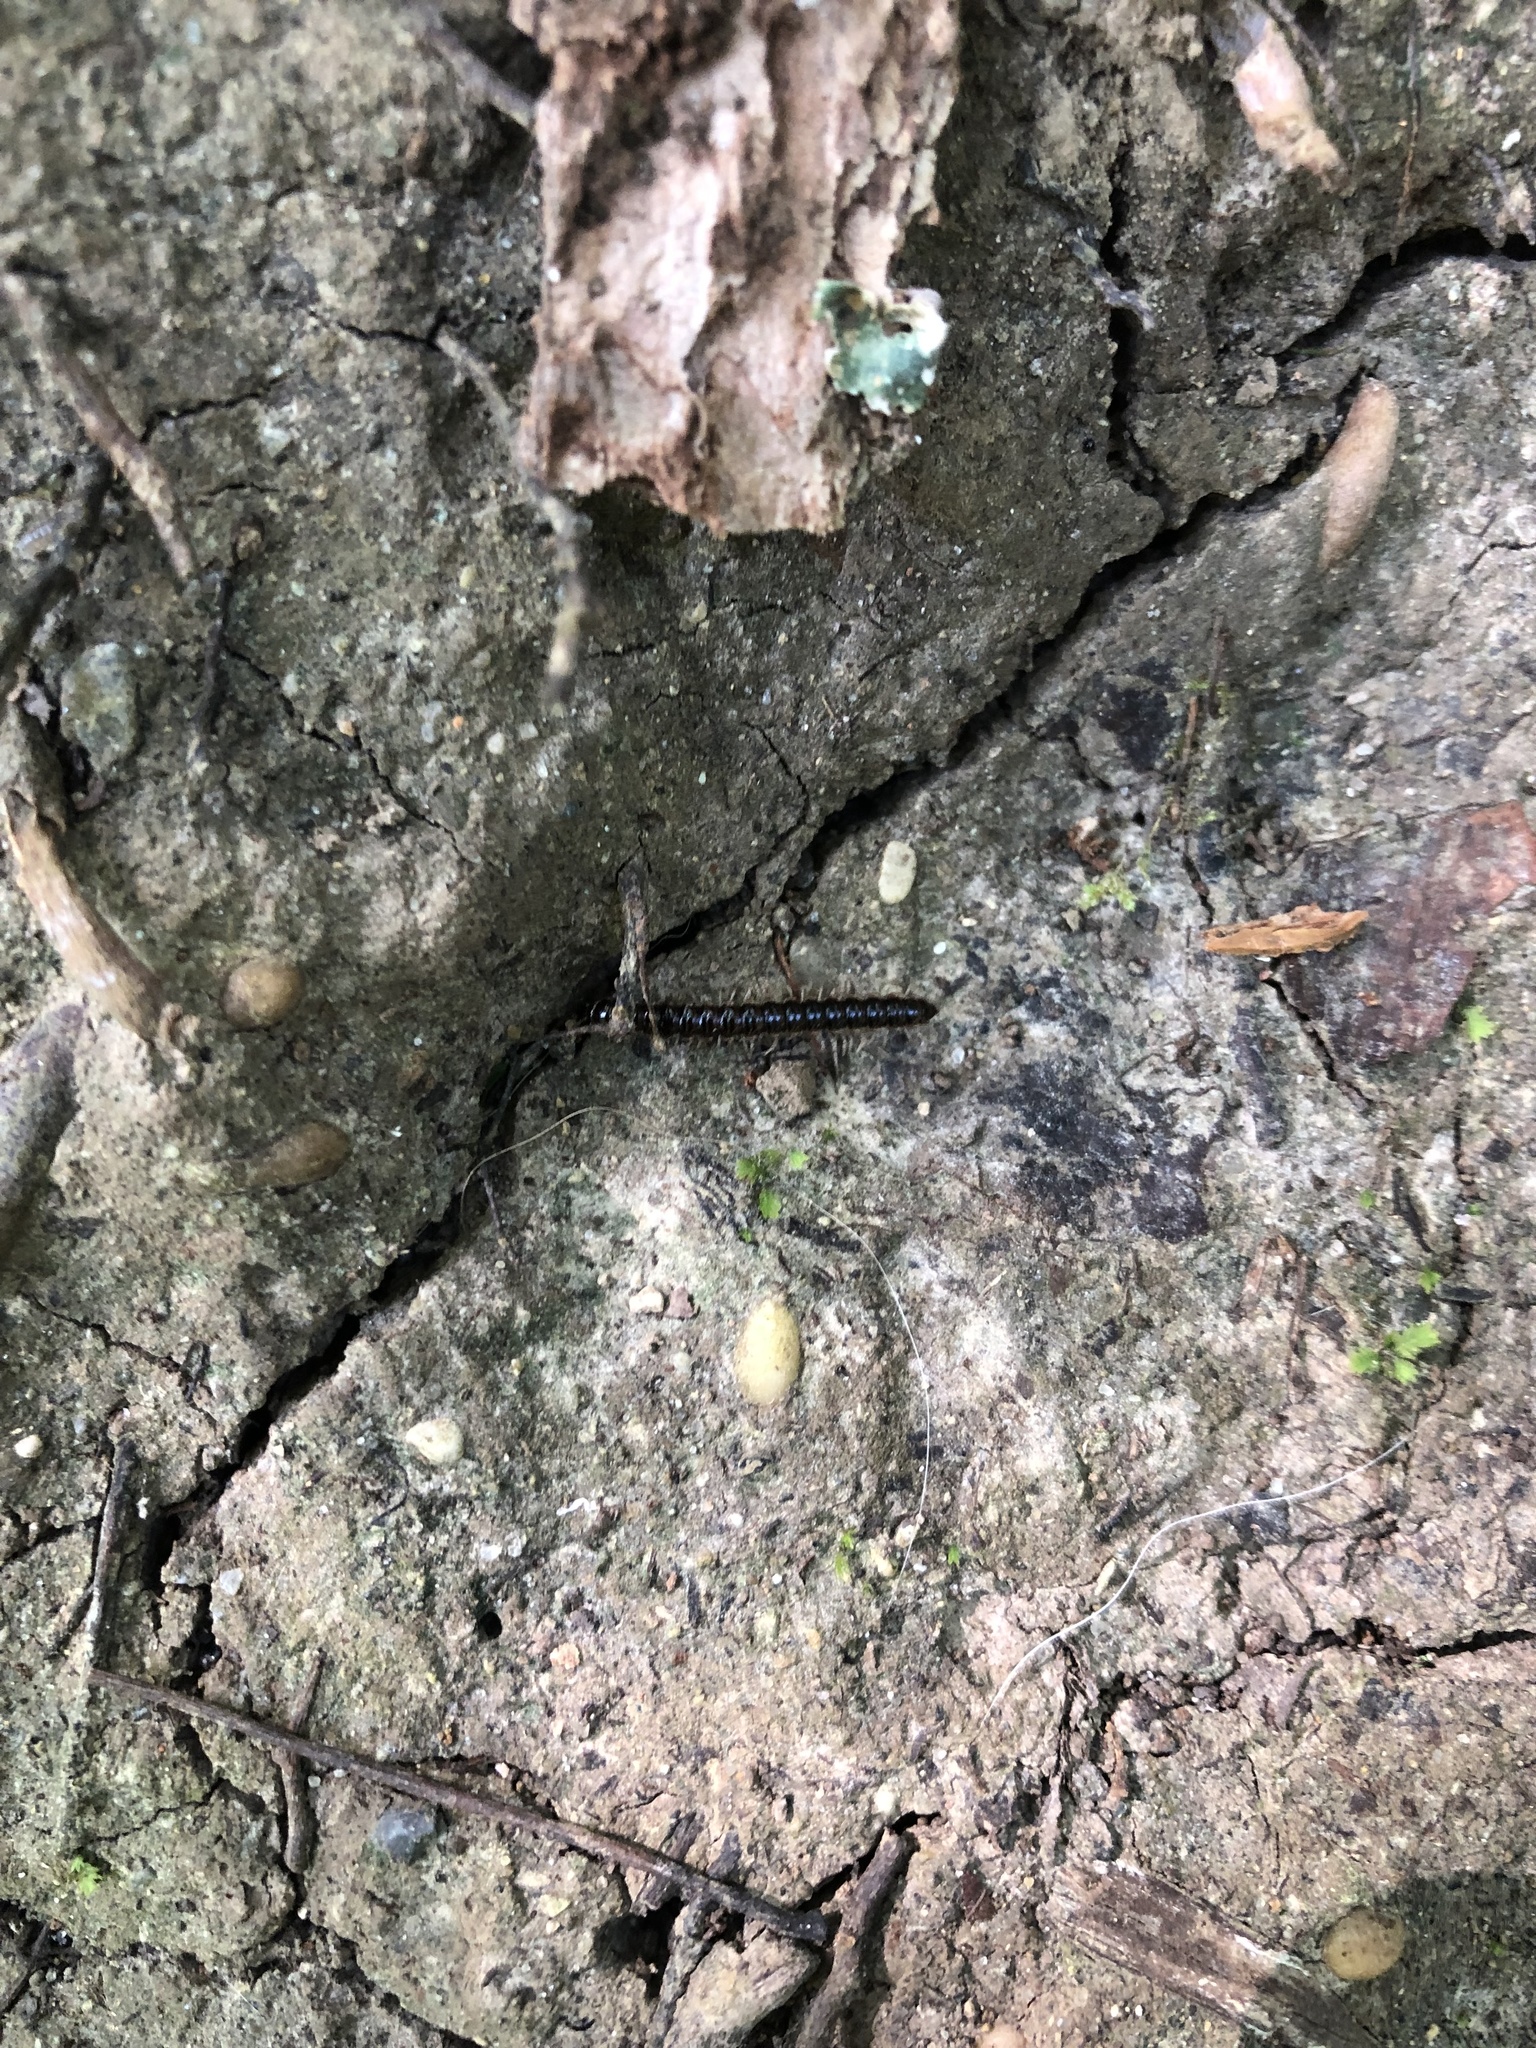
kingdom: Animalia
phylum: Arthropoda
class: Diplopoda
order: Polydesmida
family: Paradoxosomatidae
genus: Oxidus
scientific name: Oxidus gracilis
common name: Greenhouse millipede
